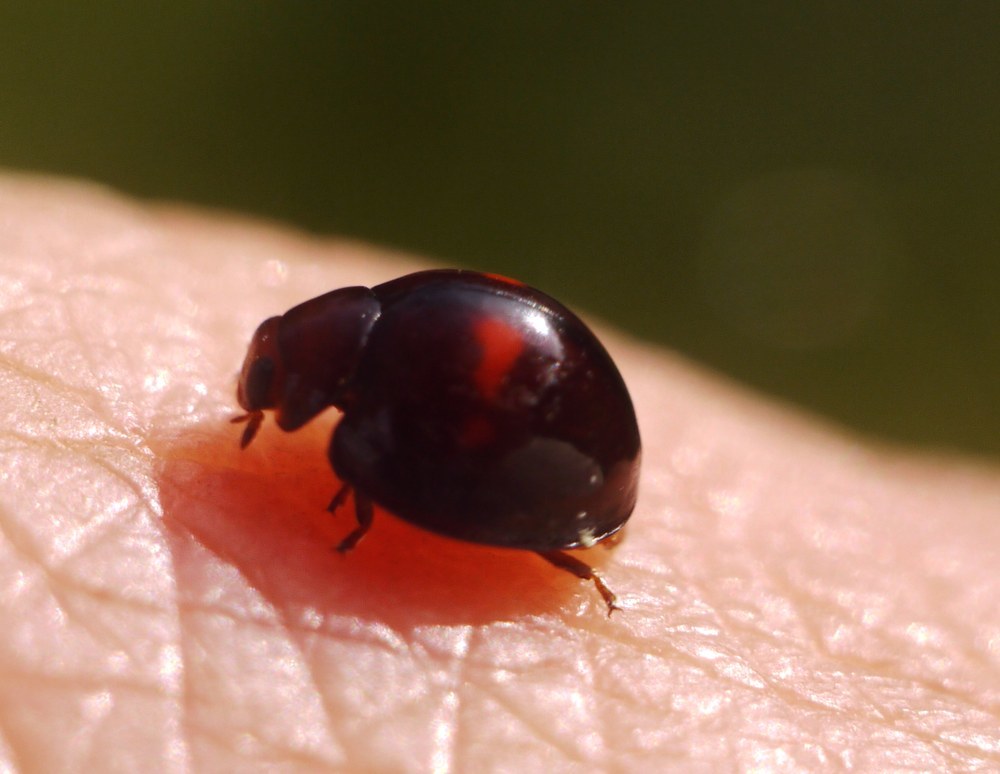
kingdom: Animalia
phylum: Arthropoda
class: Insecta
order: Coleoptera
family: Coccinellidae
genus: Chilocorus
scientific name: Chilocorus bipustulatus
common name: Heather ladybird
